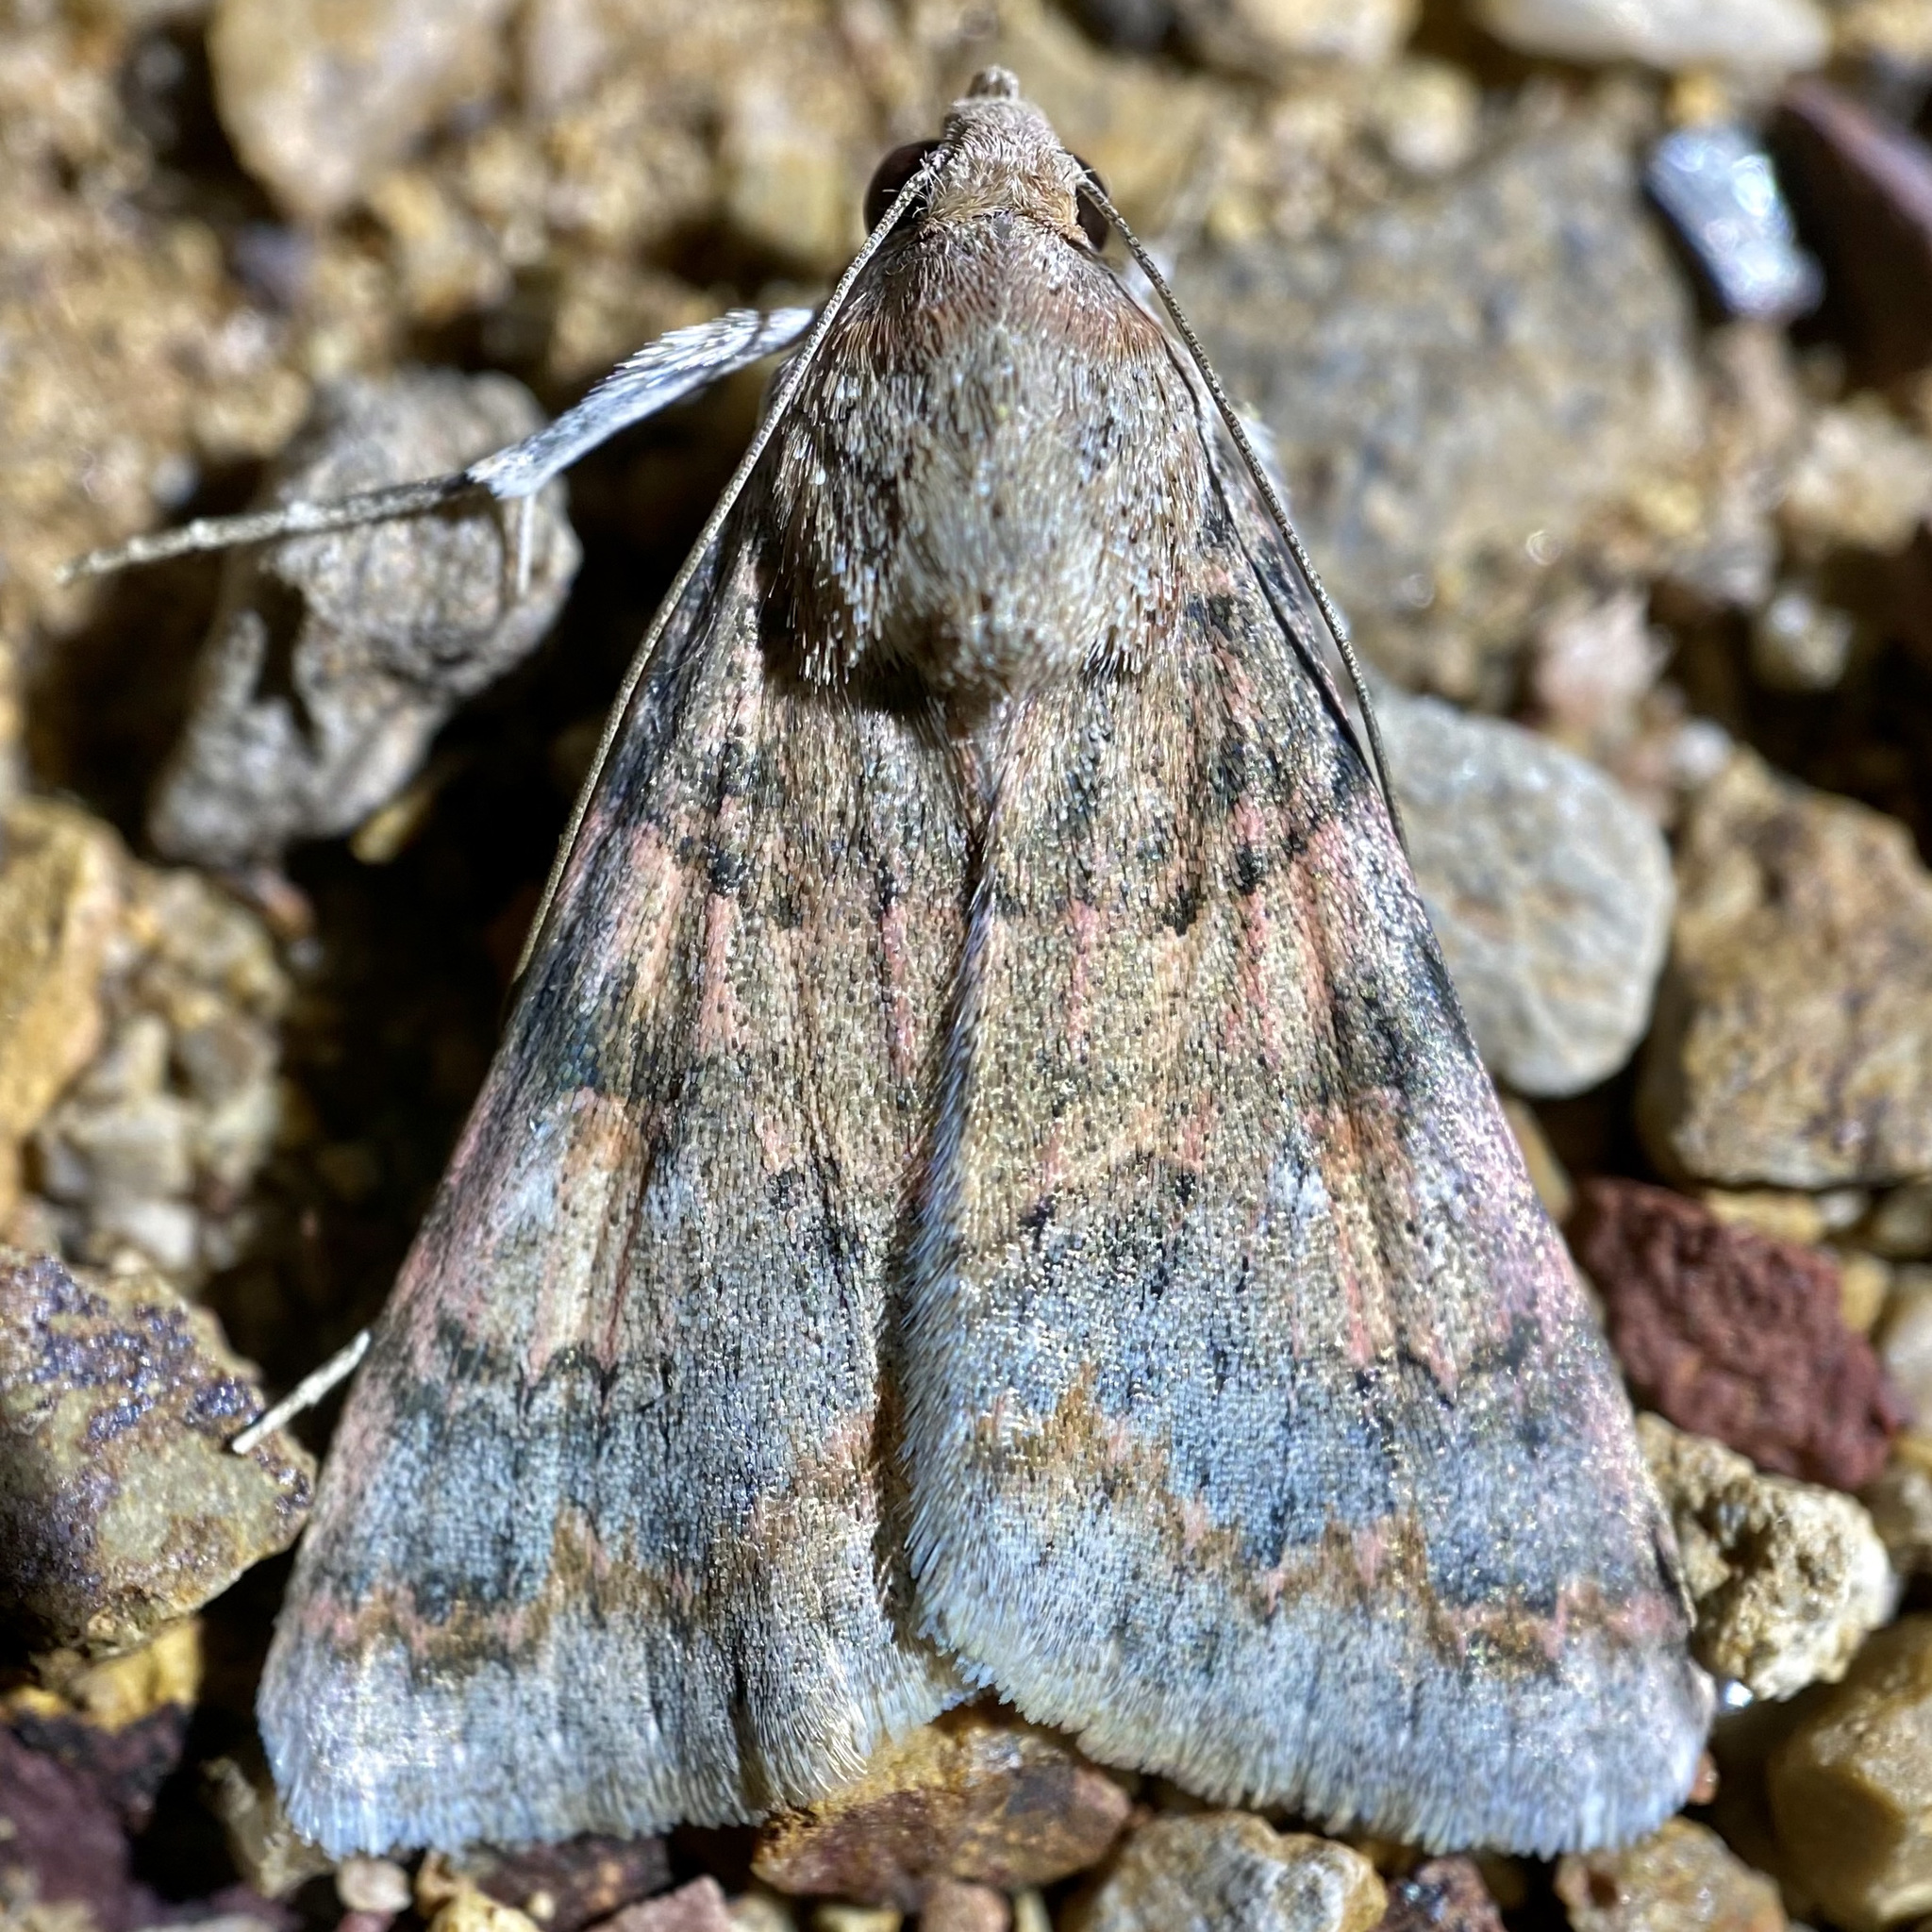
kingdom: Animalia
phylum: Arthropoda
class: Insecta
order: Lepidoptera
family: Erebidae
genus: Melipotis
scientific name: Melipotis jucunda
